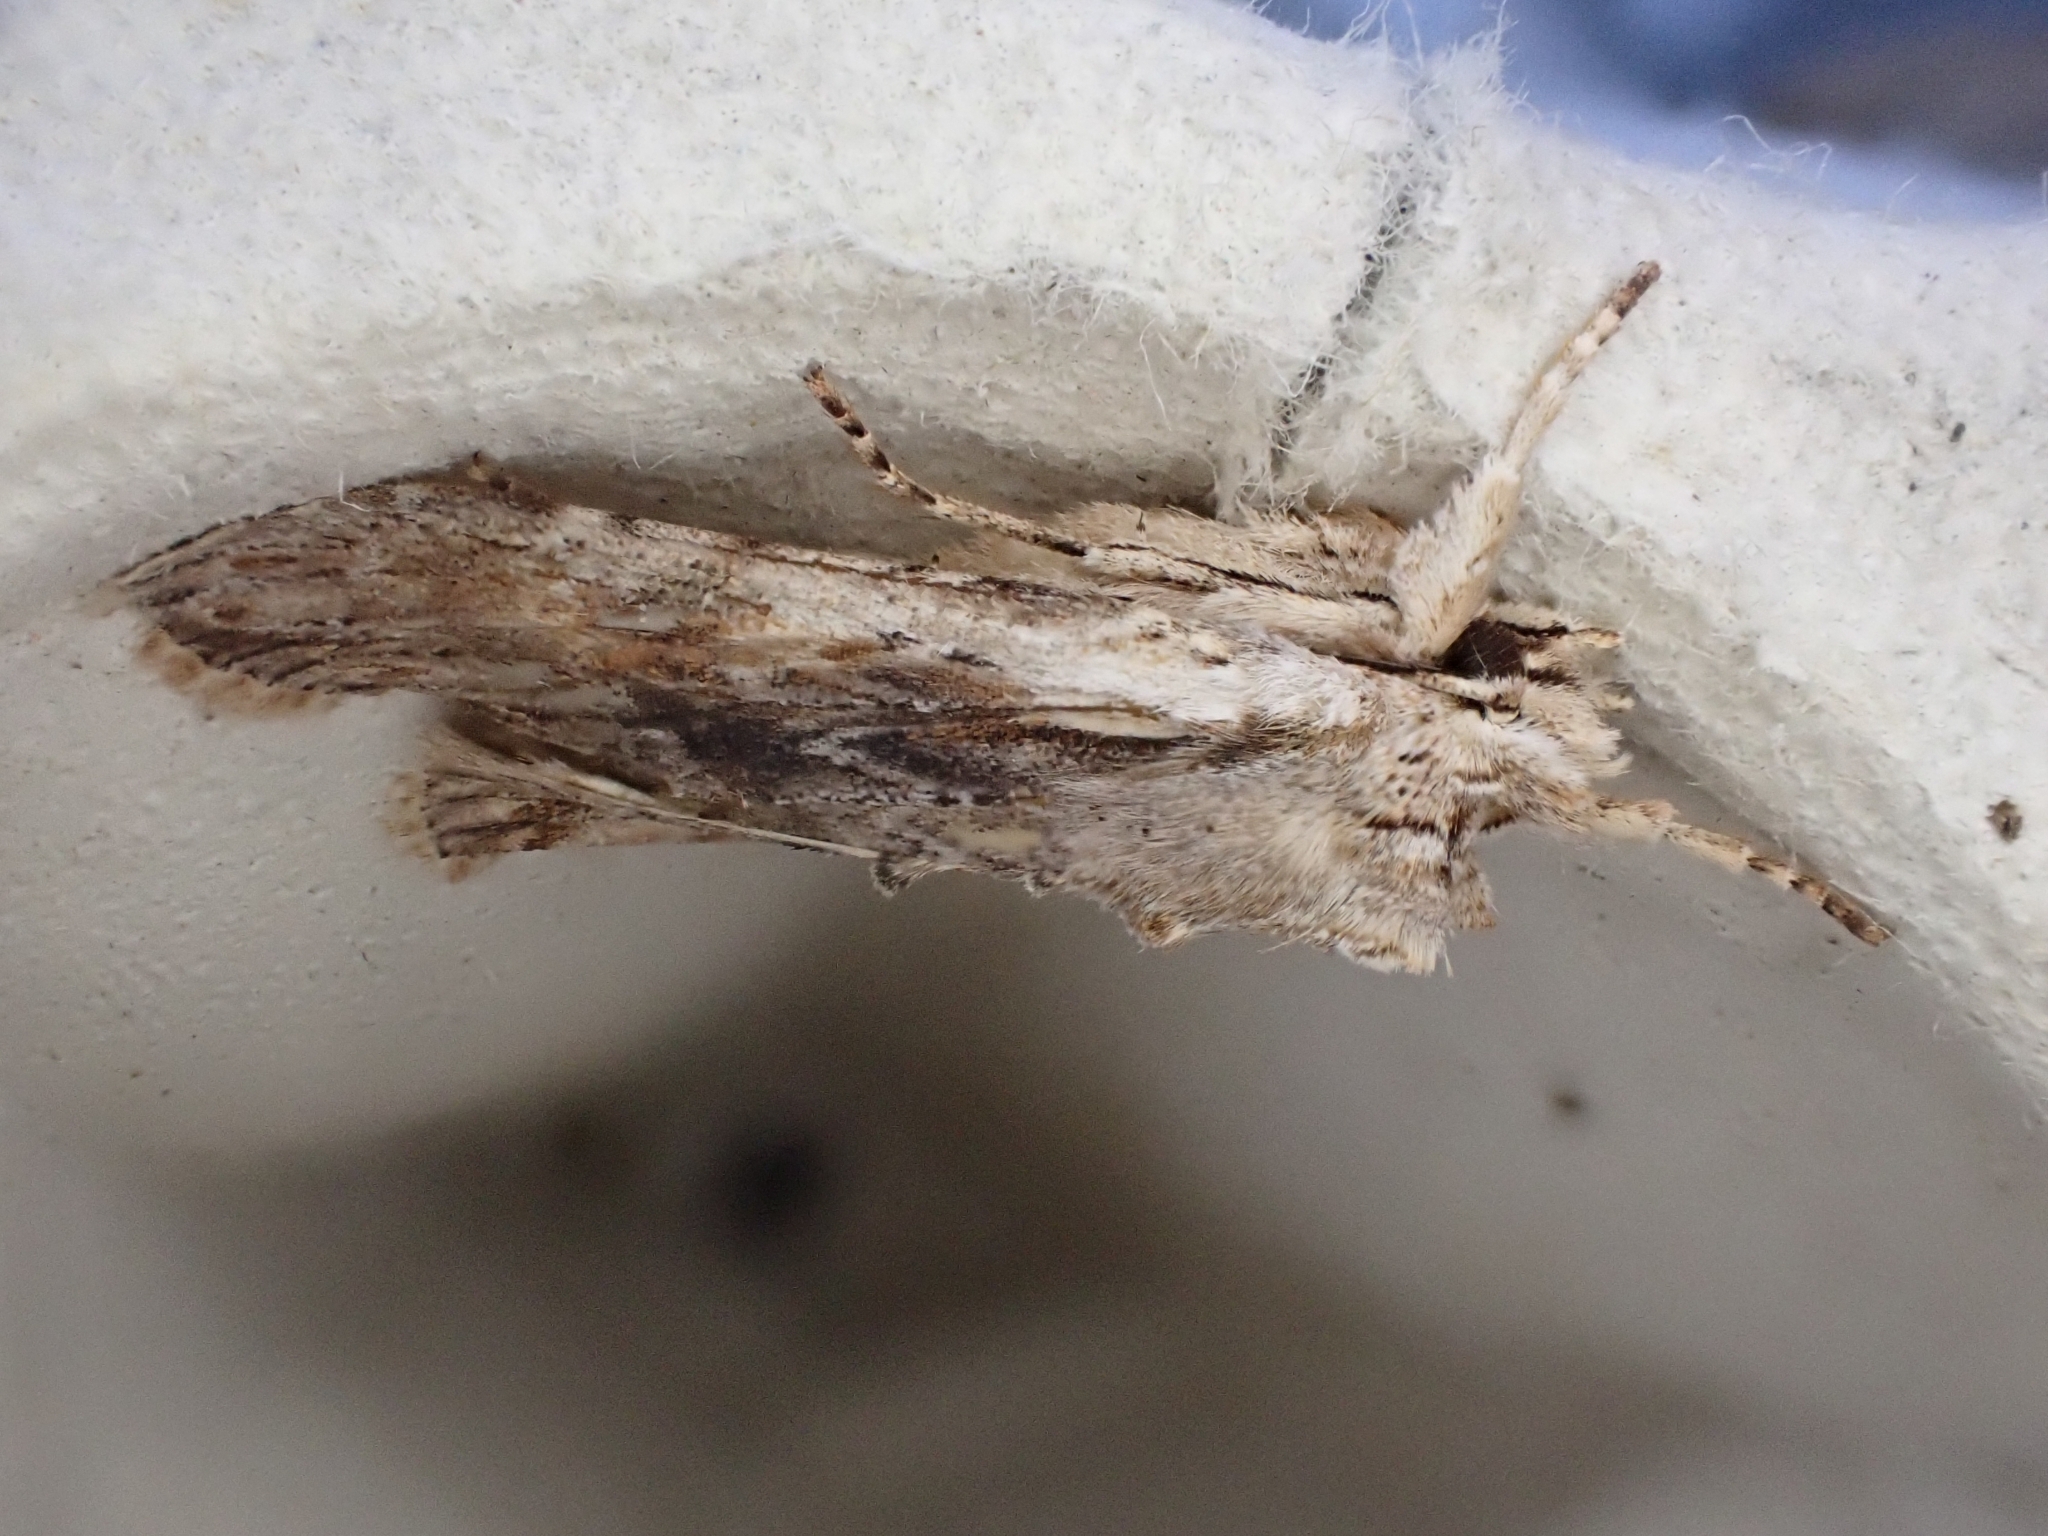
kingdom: Animalia
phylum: Arthropoda
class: Insecta
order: Lepidoptera
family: Noctuidae
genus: Lithophane
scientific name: Lithophane socia
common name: Pale pinion
